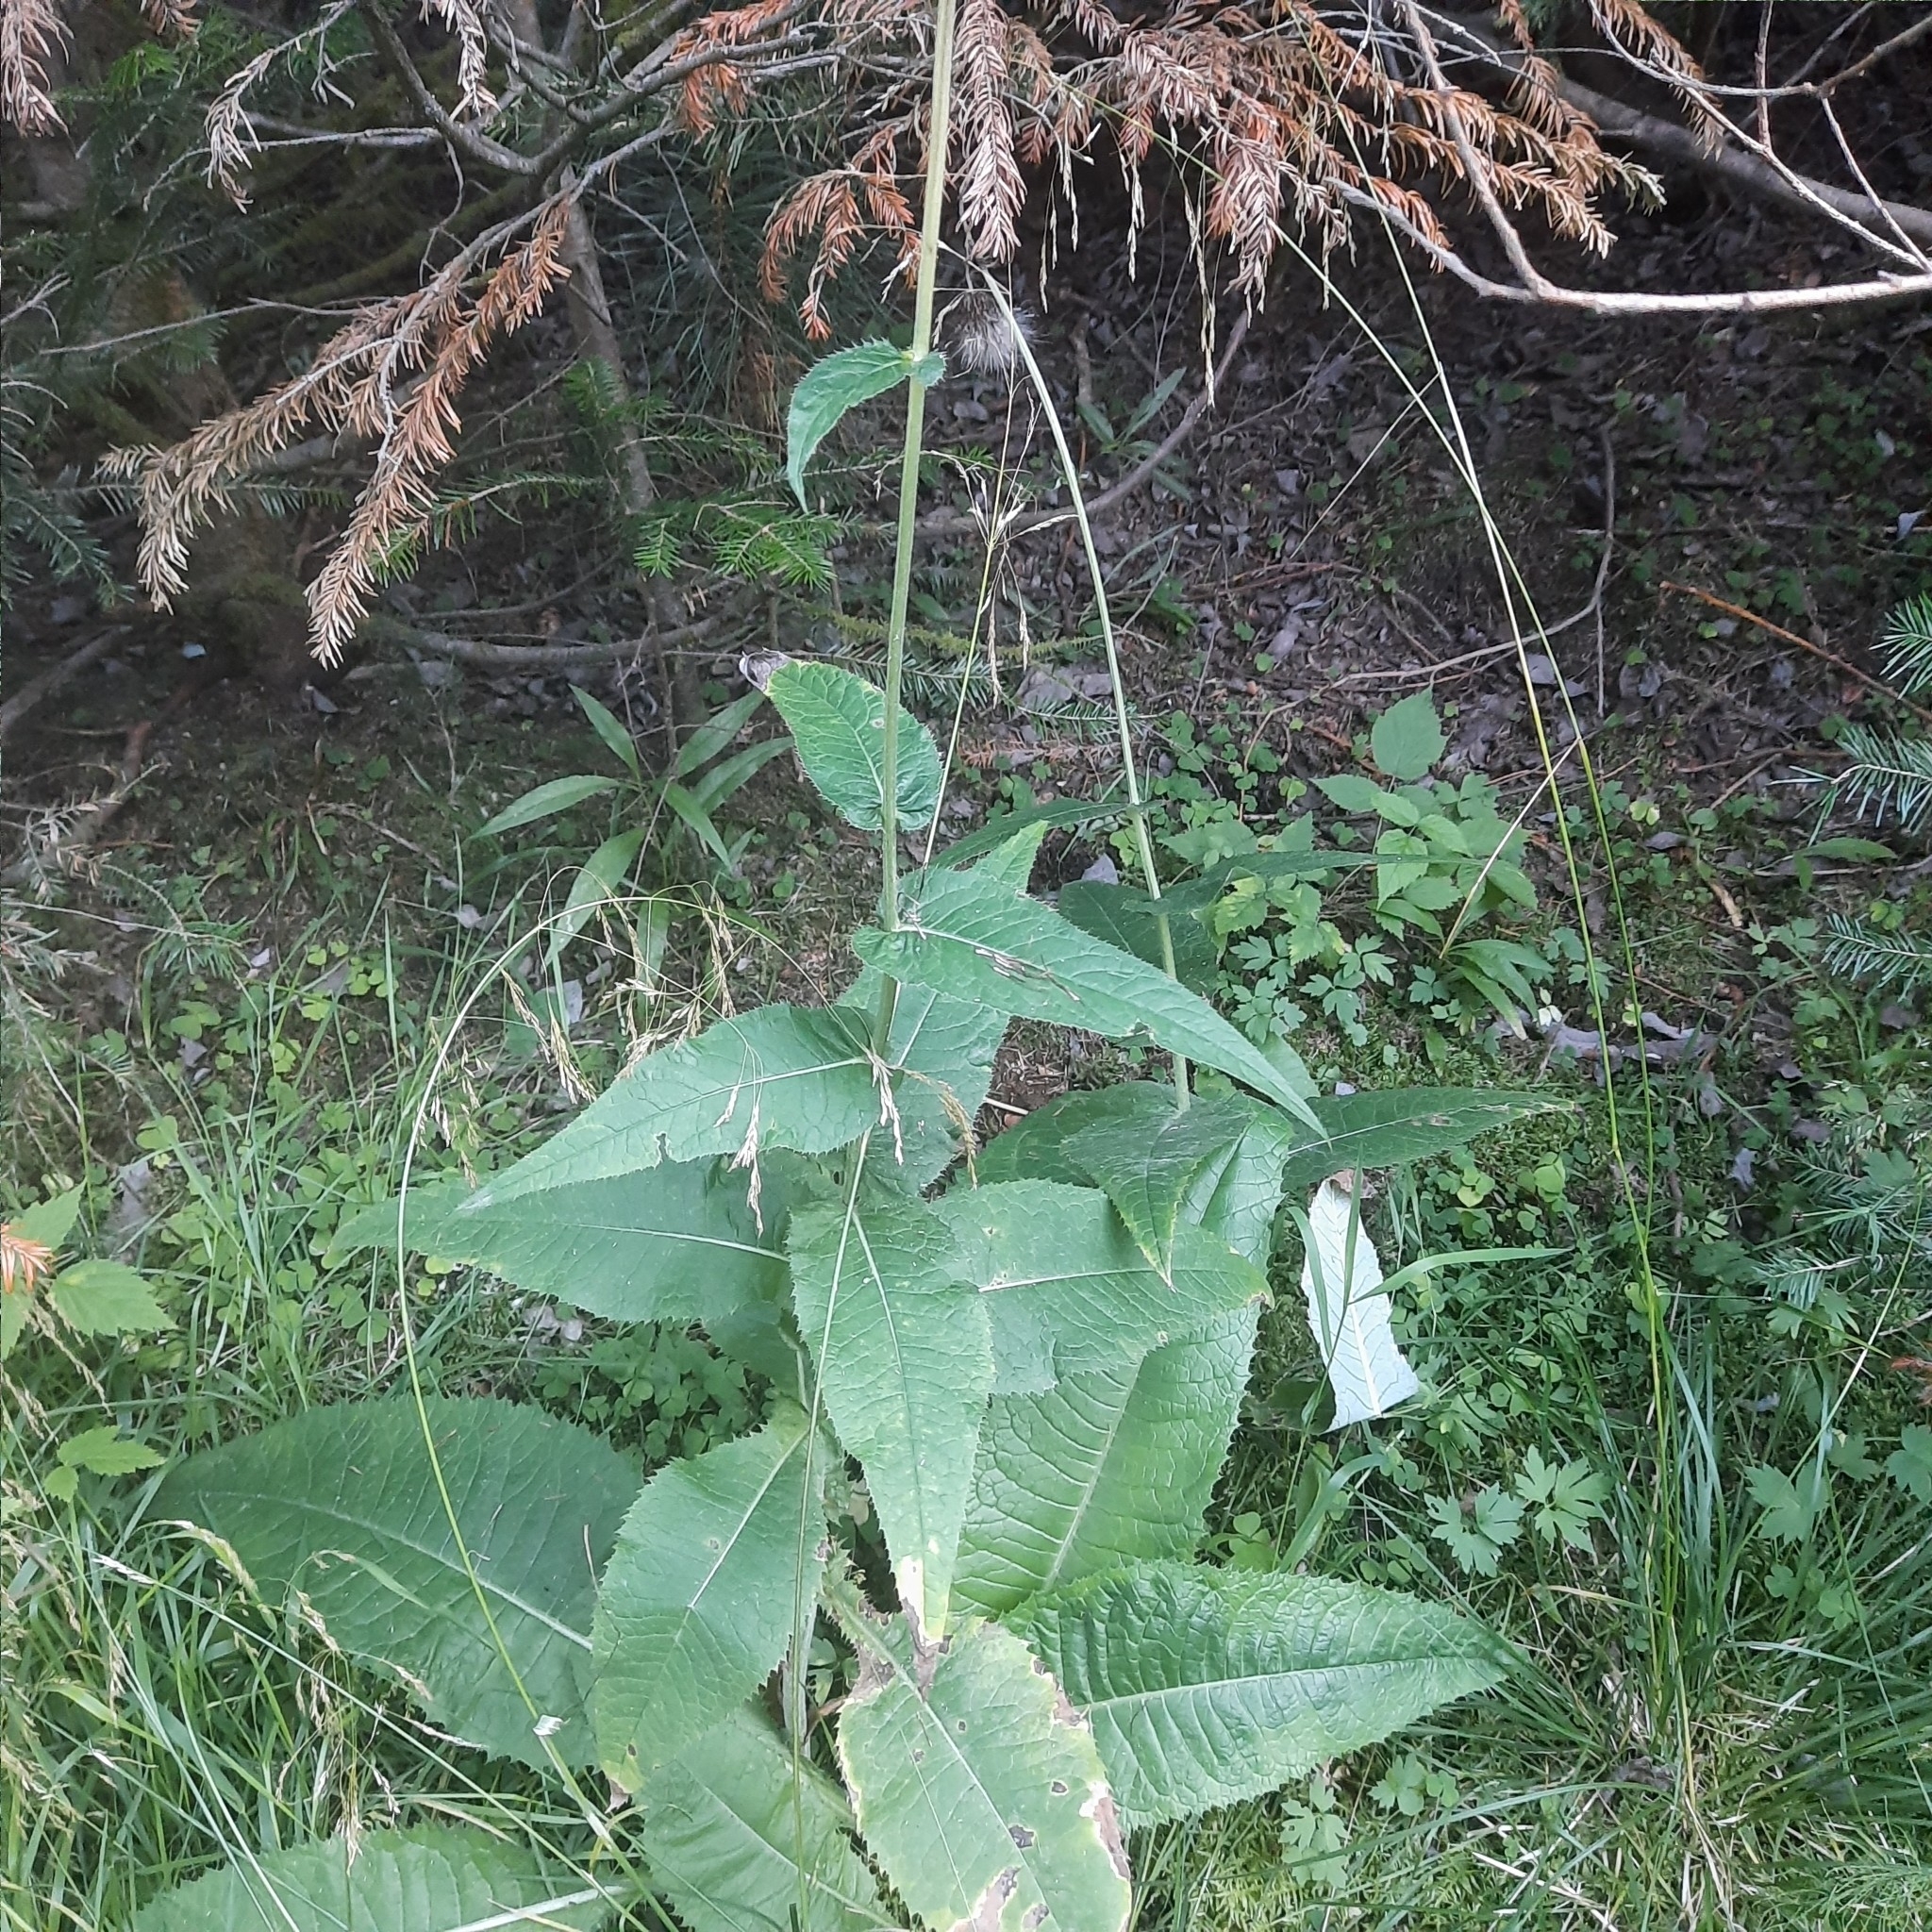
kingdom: Plantae
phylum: Tracheophyta
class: Magnoliopsida
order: Asterales
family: Asteraceae
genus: Cirsium
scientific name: Cirsium helenioides
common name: Melancholy thistle
